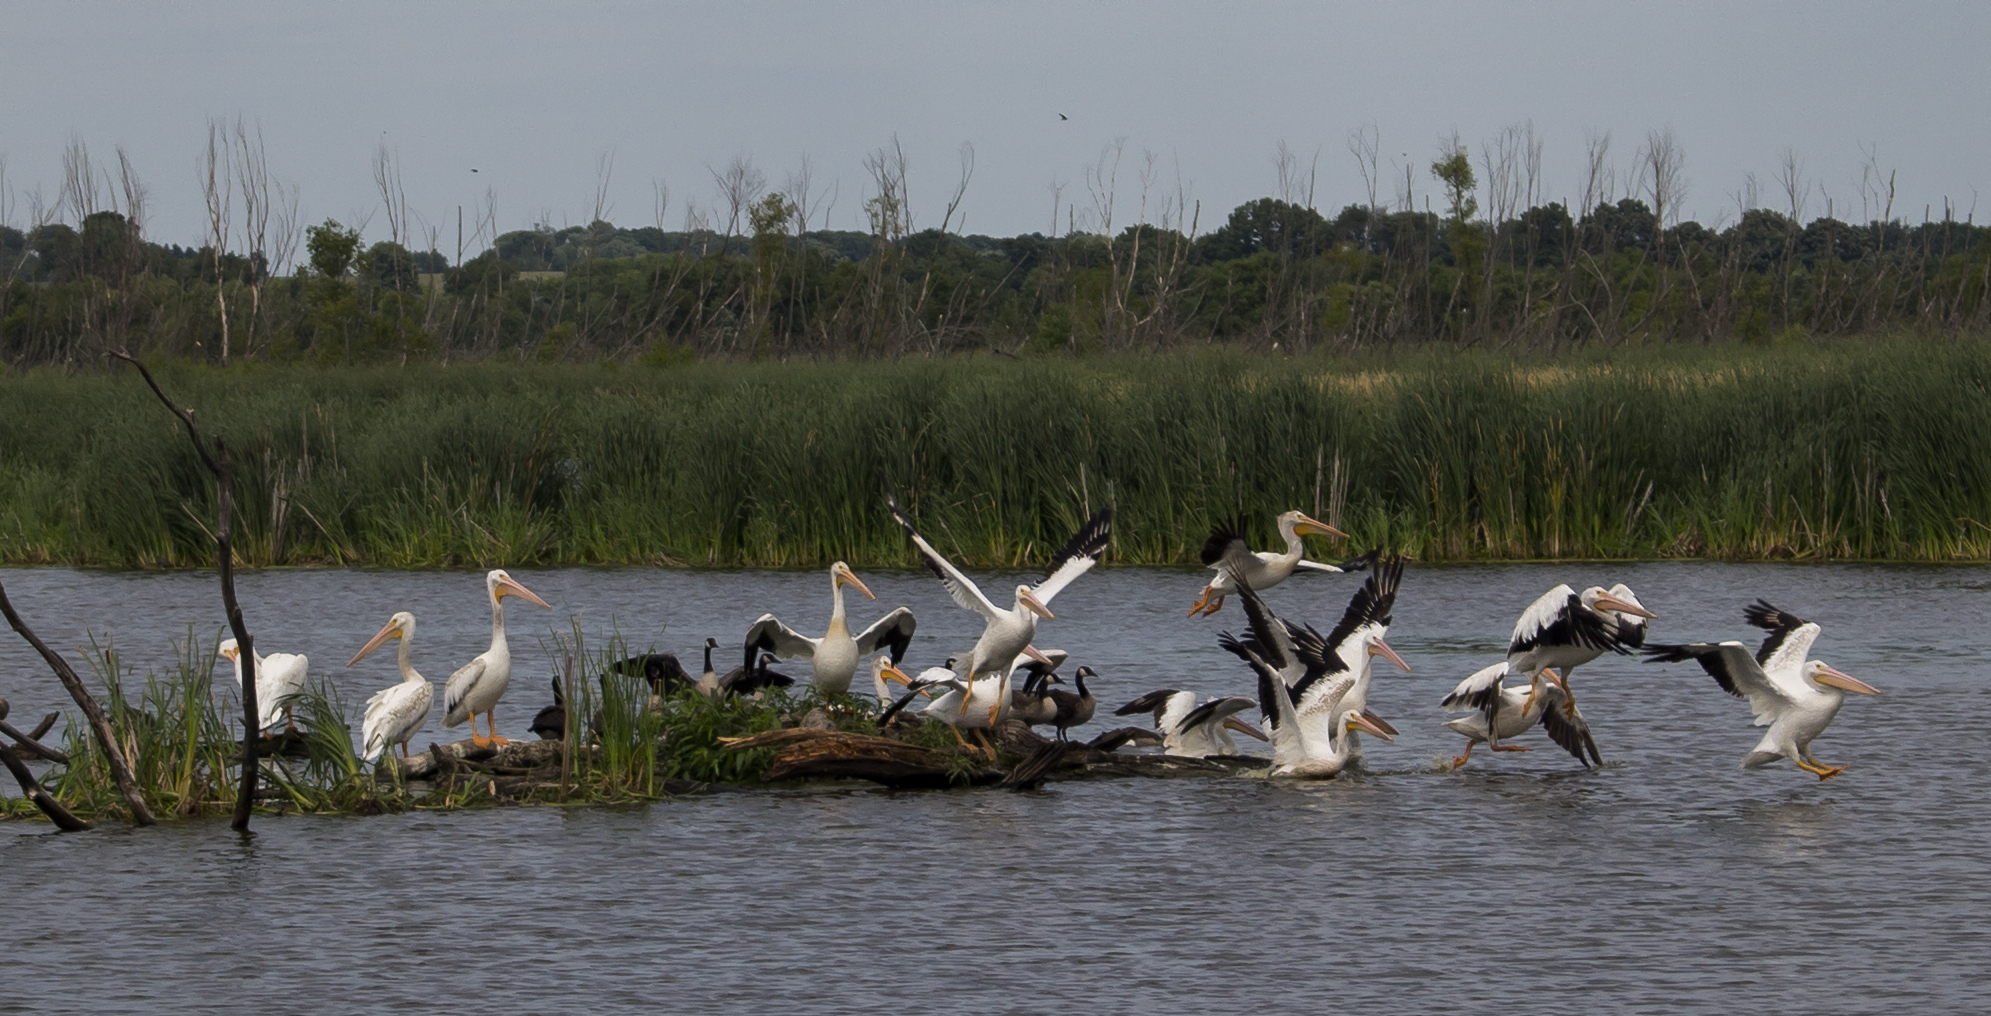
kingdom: Animalia
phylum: Chordata
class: Aves
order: Anseriformes
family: Anatidae
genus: Branta
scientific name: Branta canadensis
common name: Canada goose
